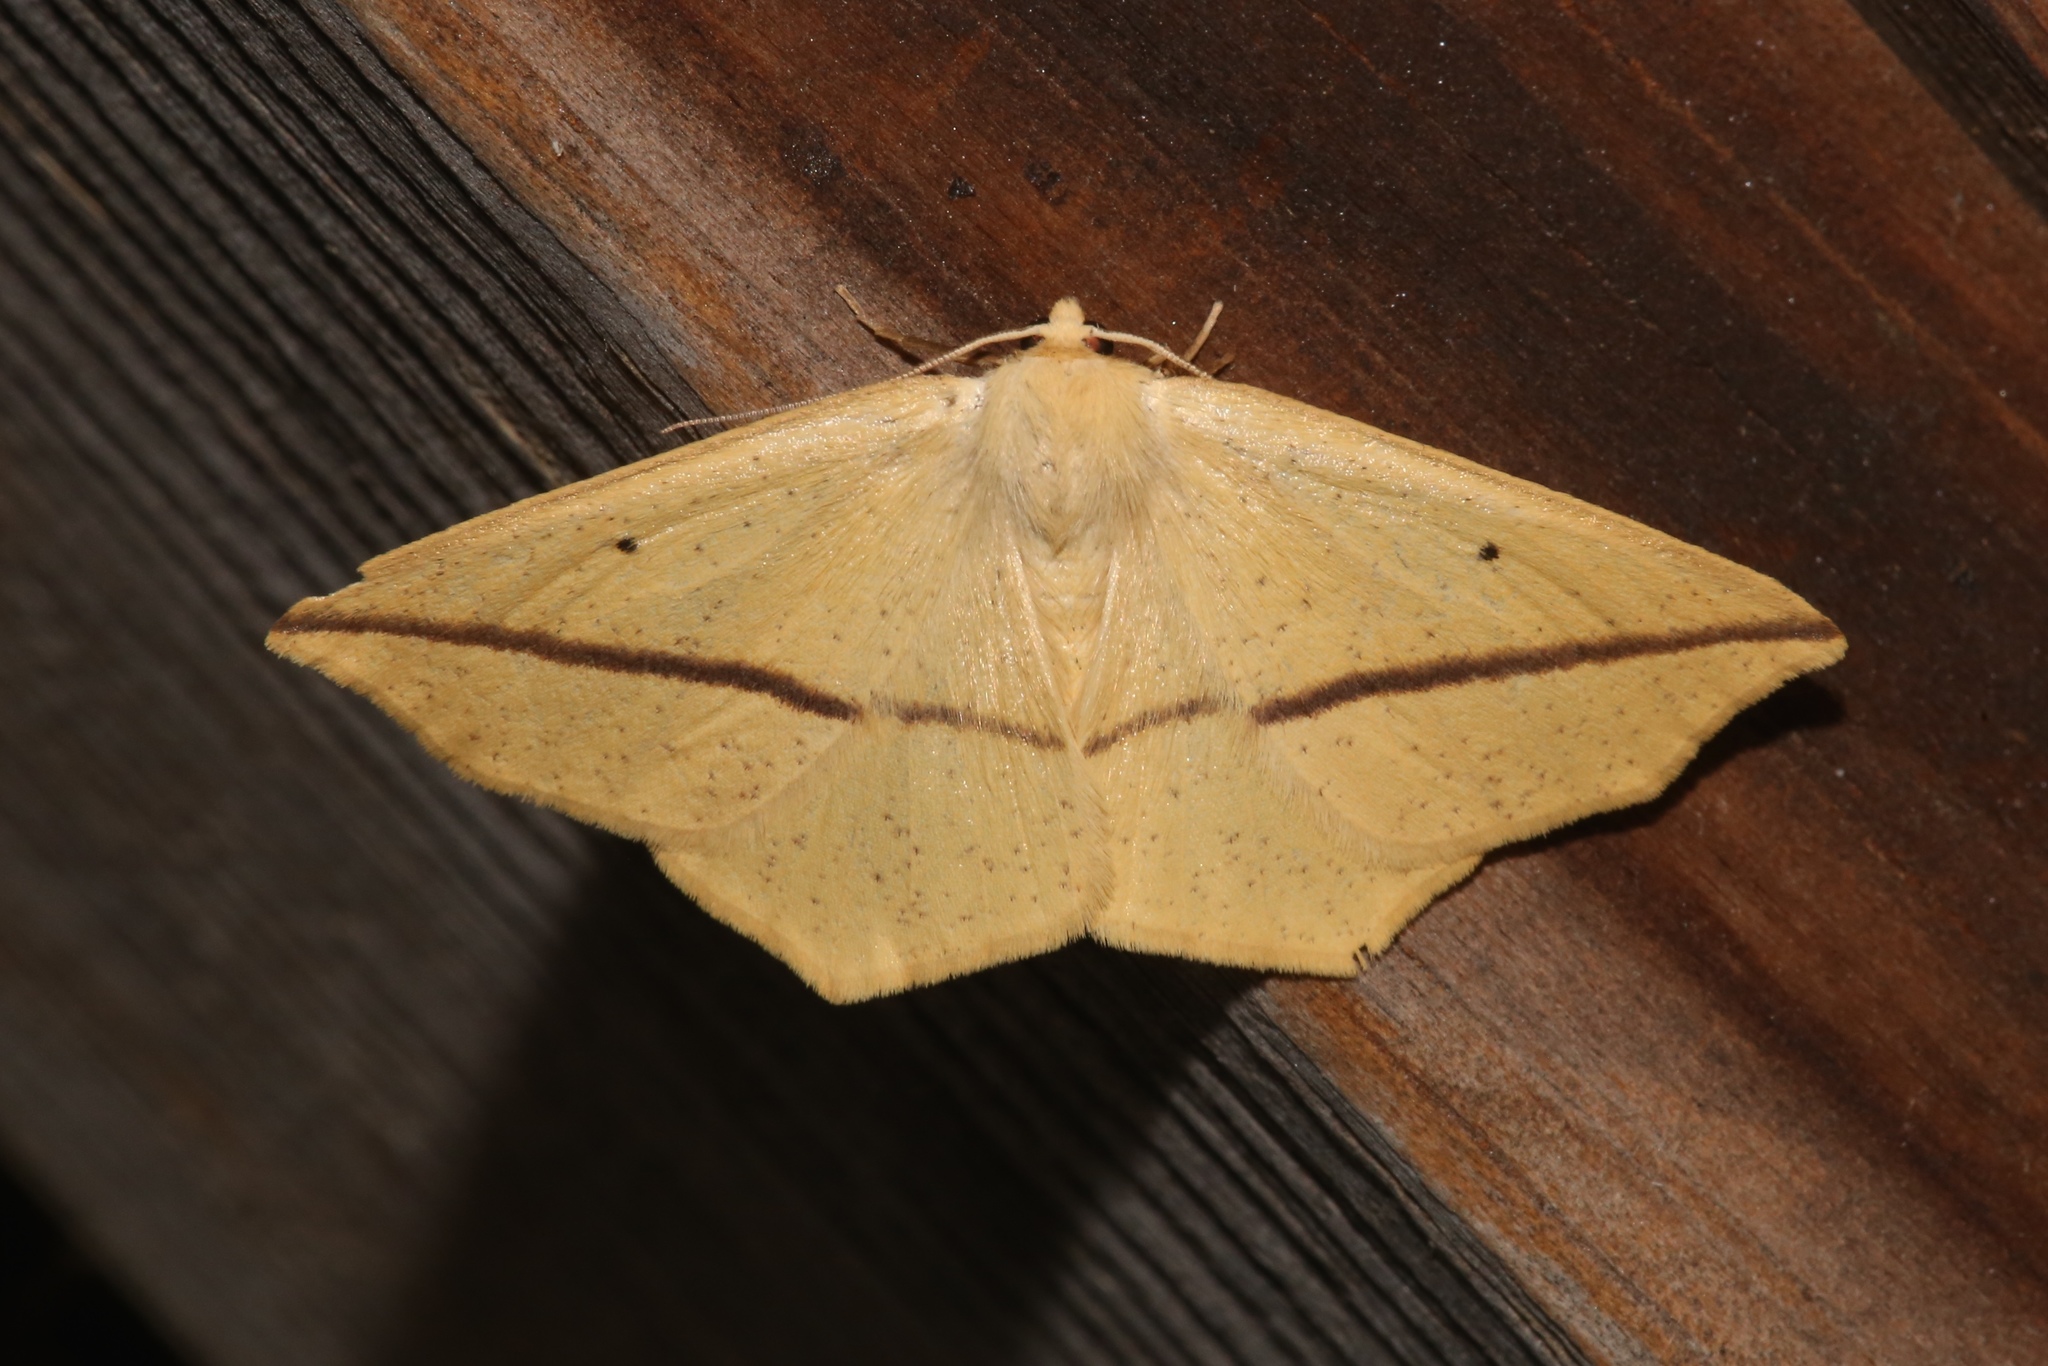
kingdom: Animalia
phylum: Arthropoda
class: Insecta
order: Lepidoptera
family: Geometridae
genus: Tetracis
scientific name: Tetracis crocallata
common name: Yellow slant-line
